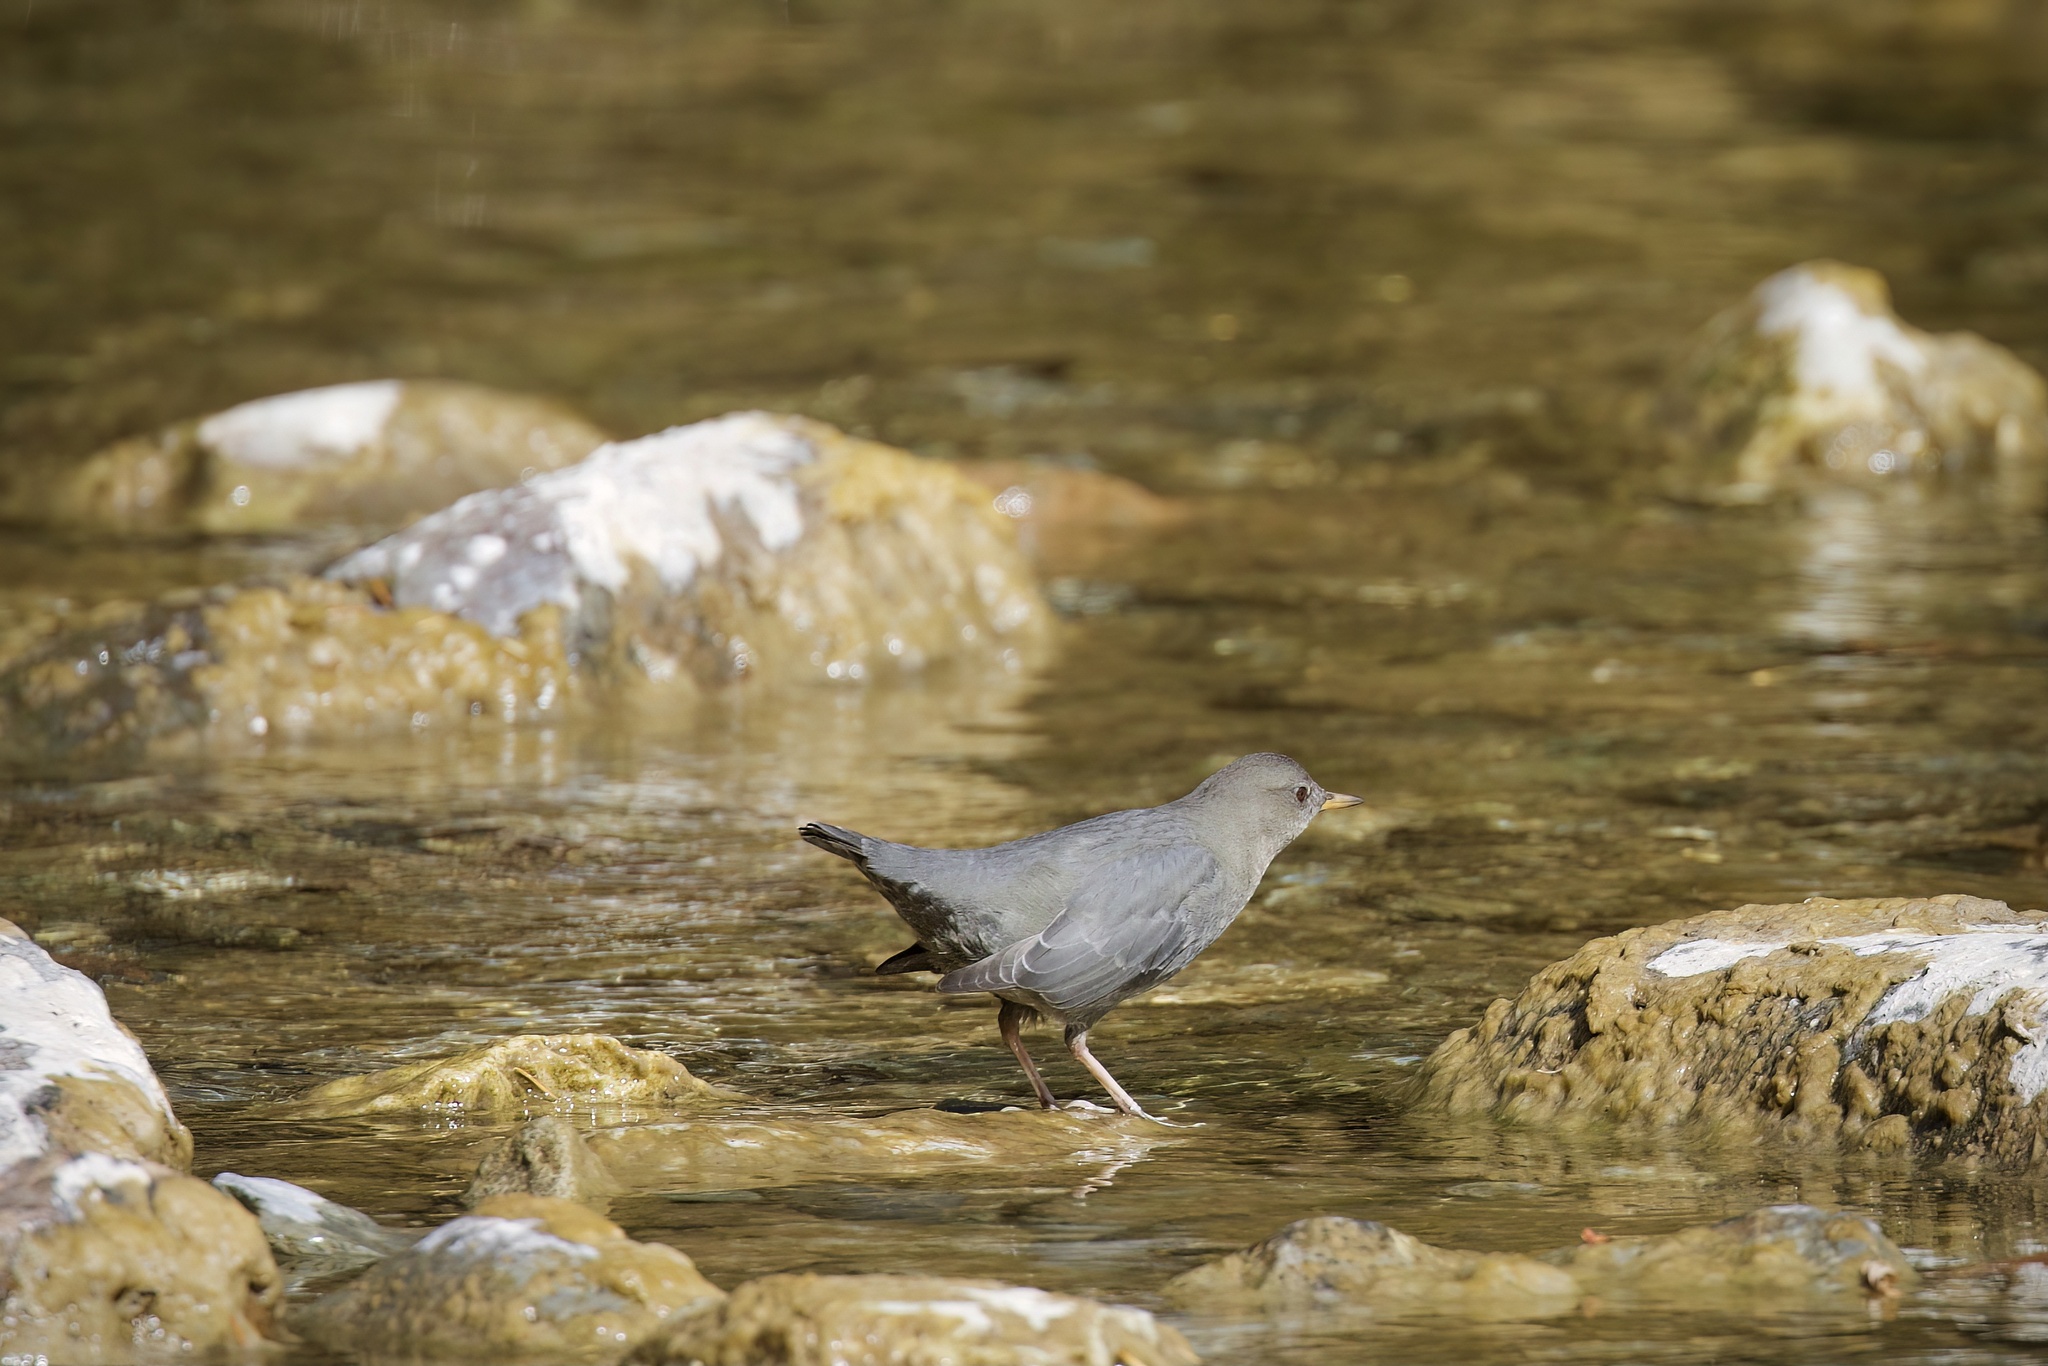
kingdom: Animalia
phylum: Chordata
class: Aves
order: Passeriformes
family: Cinclidae
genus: Cinclus
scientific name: Cinclus mexicanus
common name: American dipper
